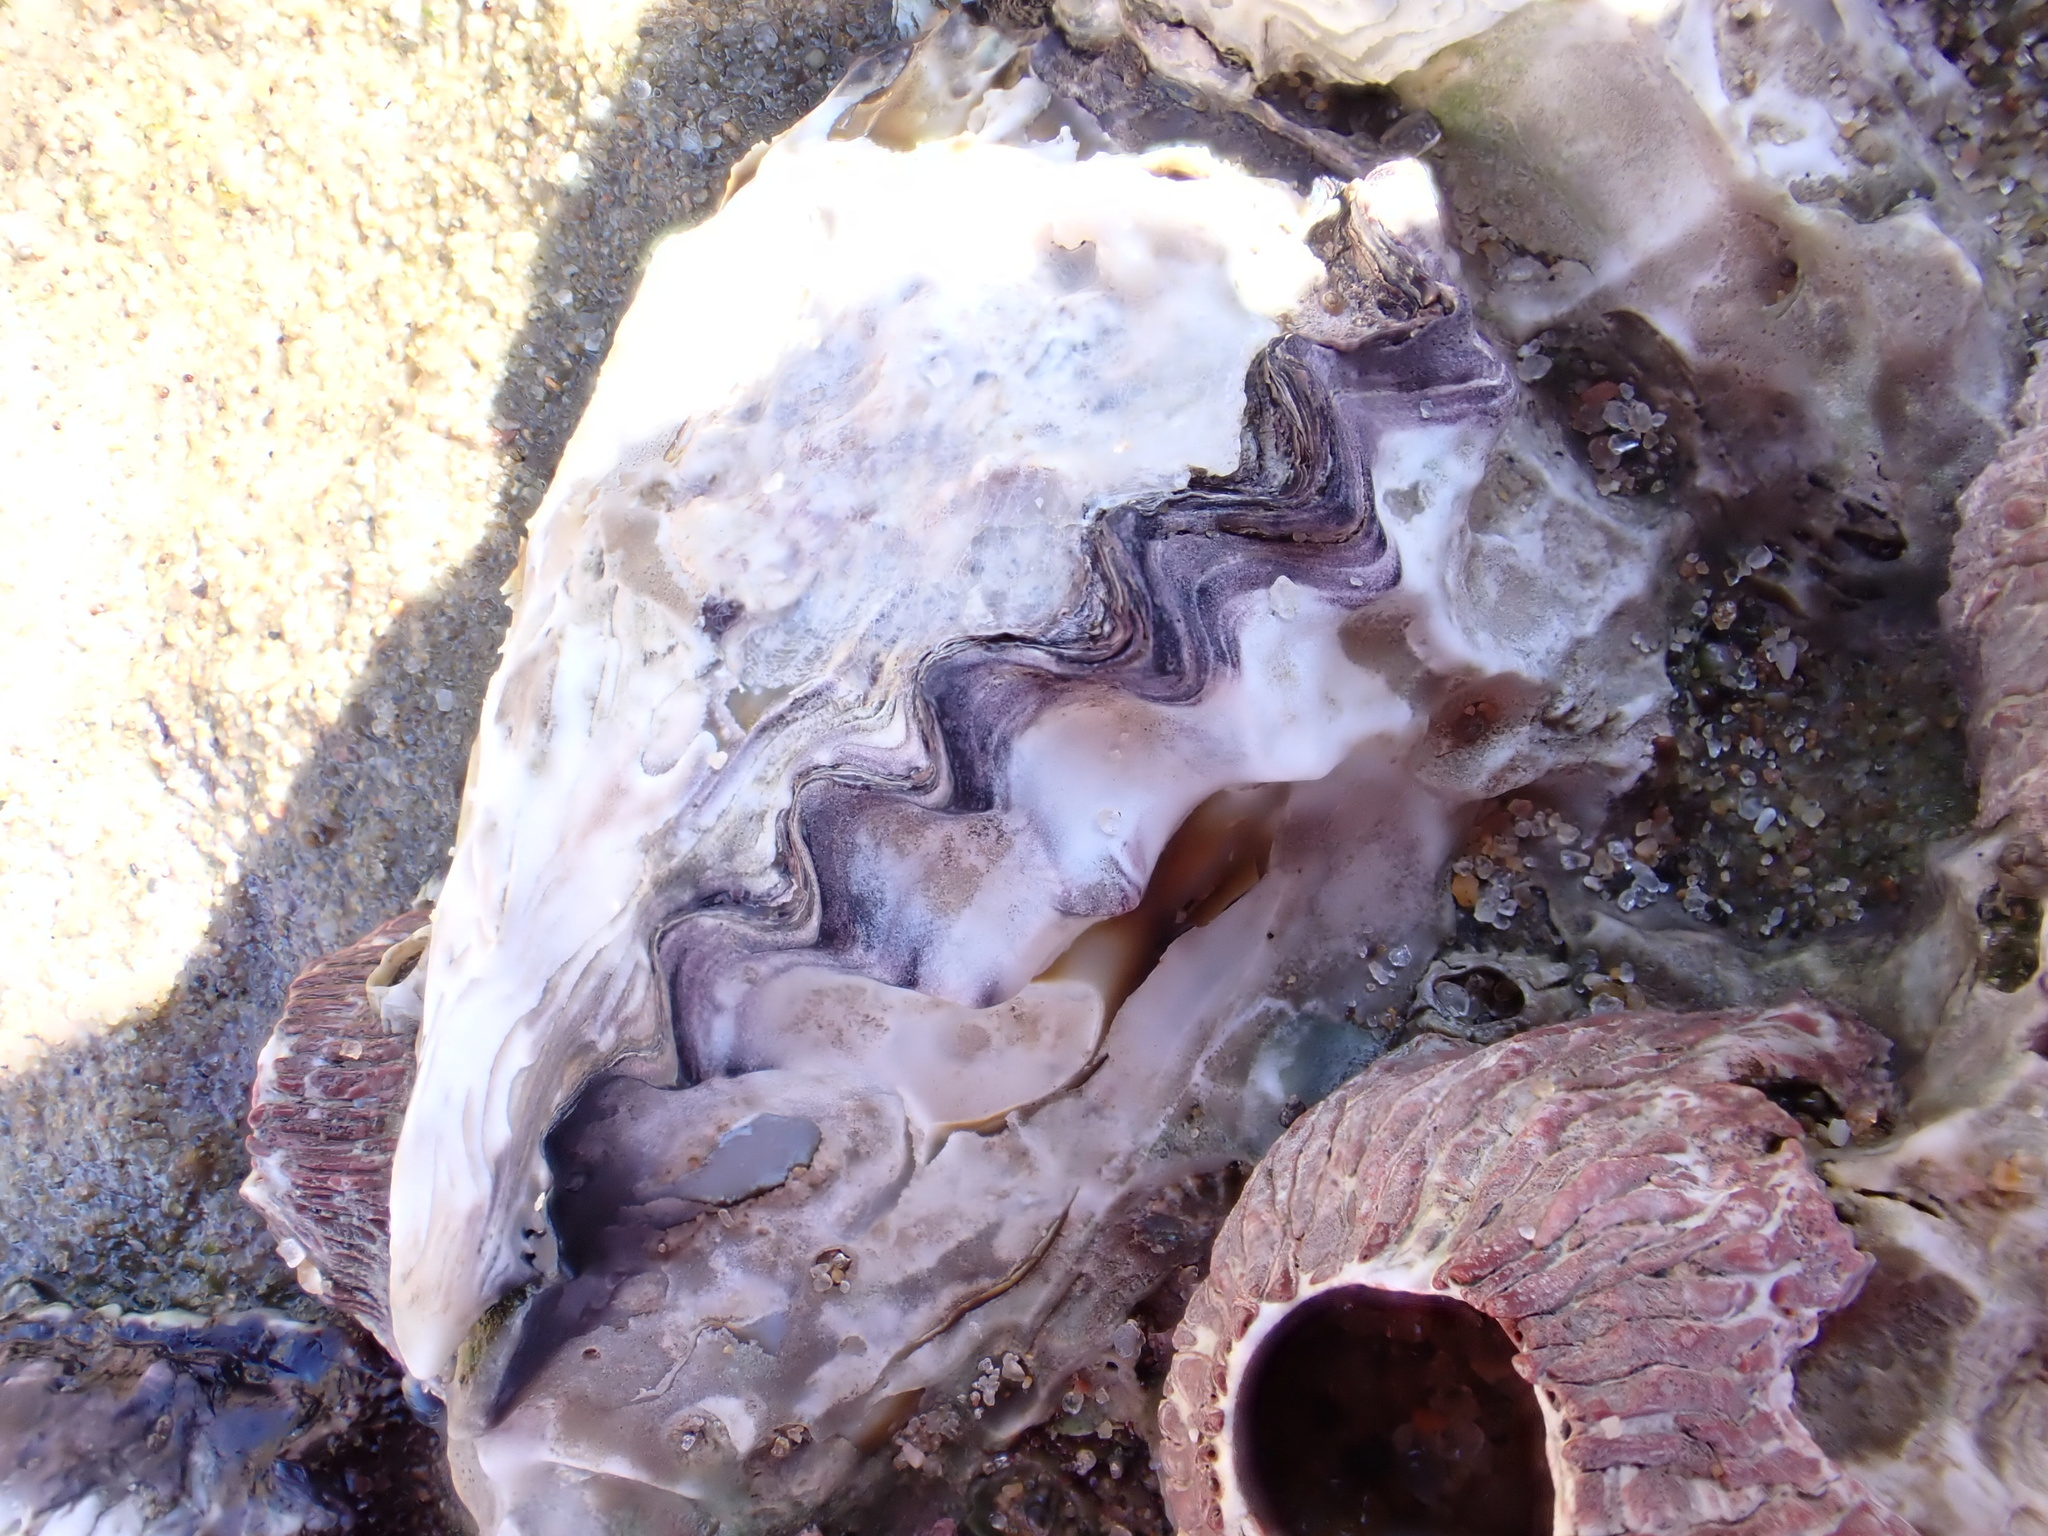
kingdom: Animalia
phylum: Mollusca
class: Bivalvia
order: Ostreida
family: Ostreidae
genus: Saccostrea
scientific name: Saccostrea cuccullata
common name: Natal rock oyster
